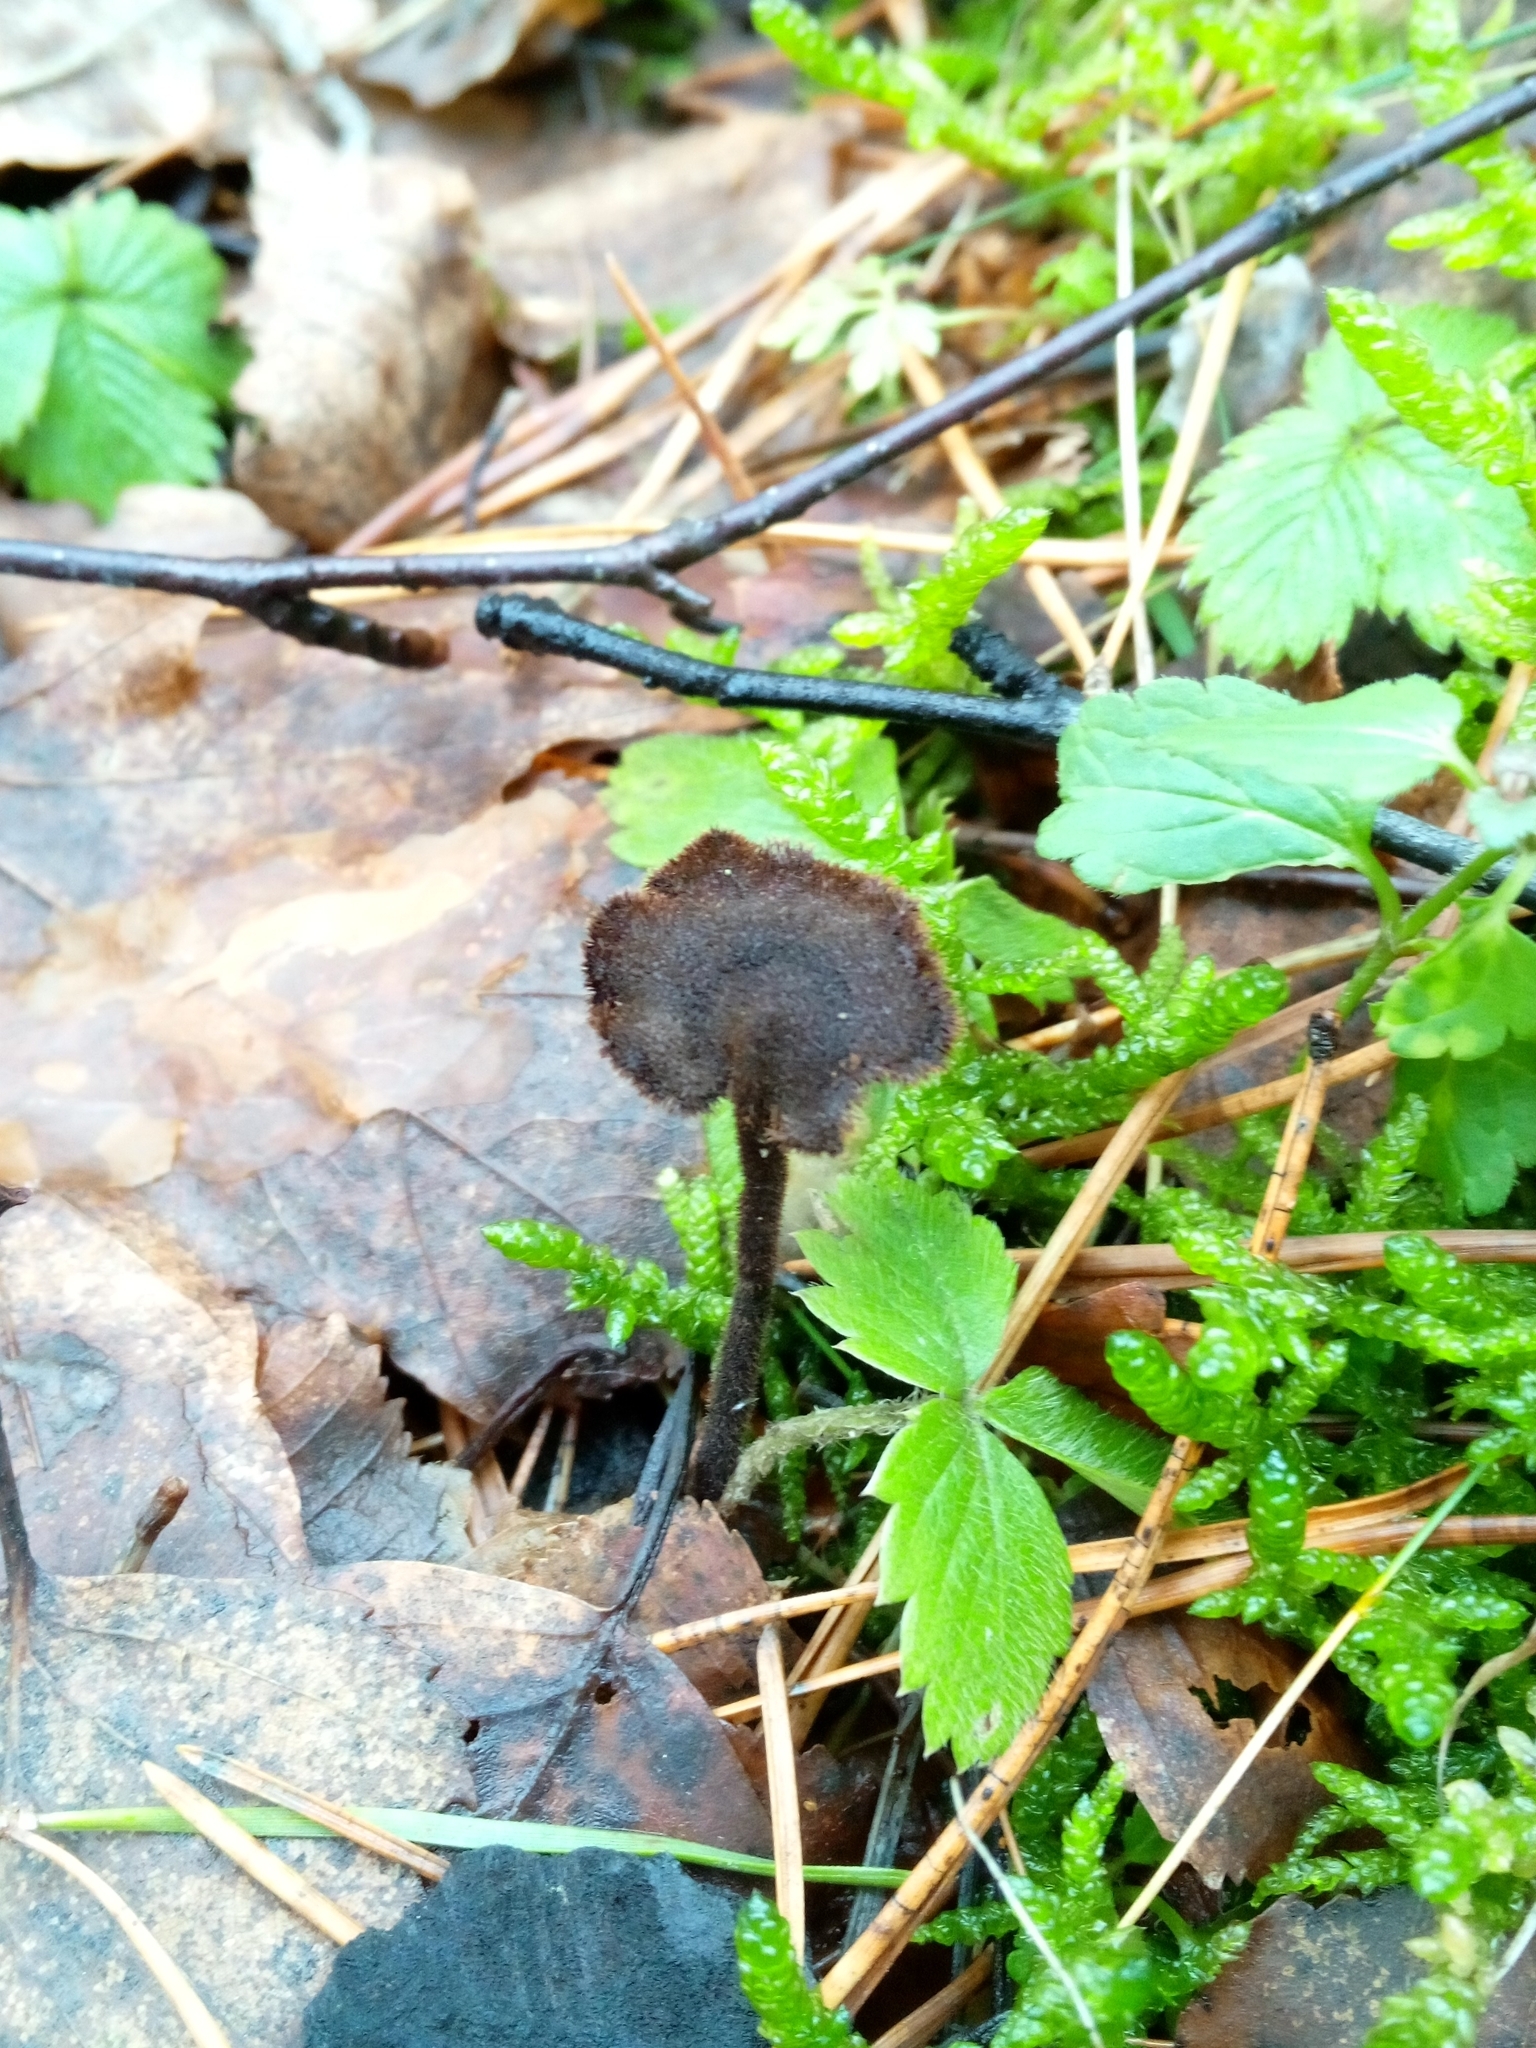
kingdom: Fungi
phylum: Basidiomycota
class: Agaricomycetes
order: Russulales
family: Auriscalpiaceae
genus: Auriscalpium
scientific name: Auriscalpium vulgare
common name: Earpick fungus
